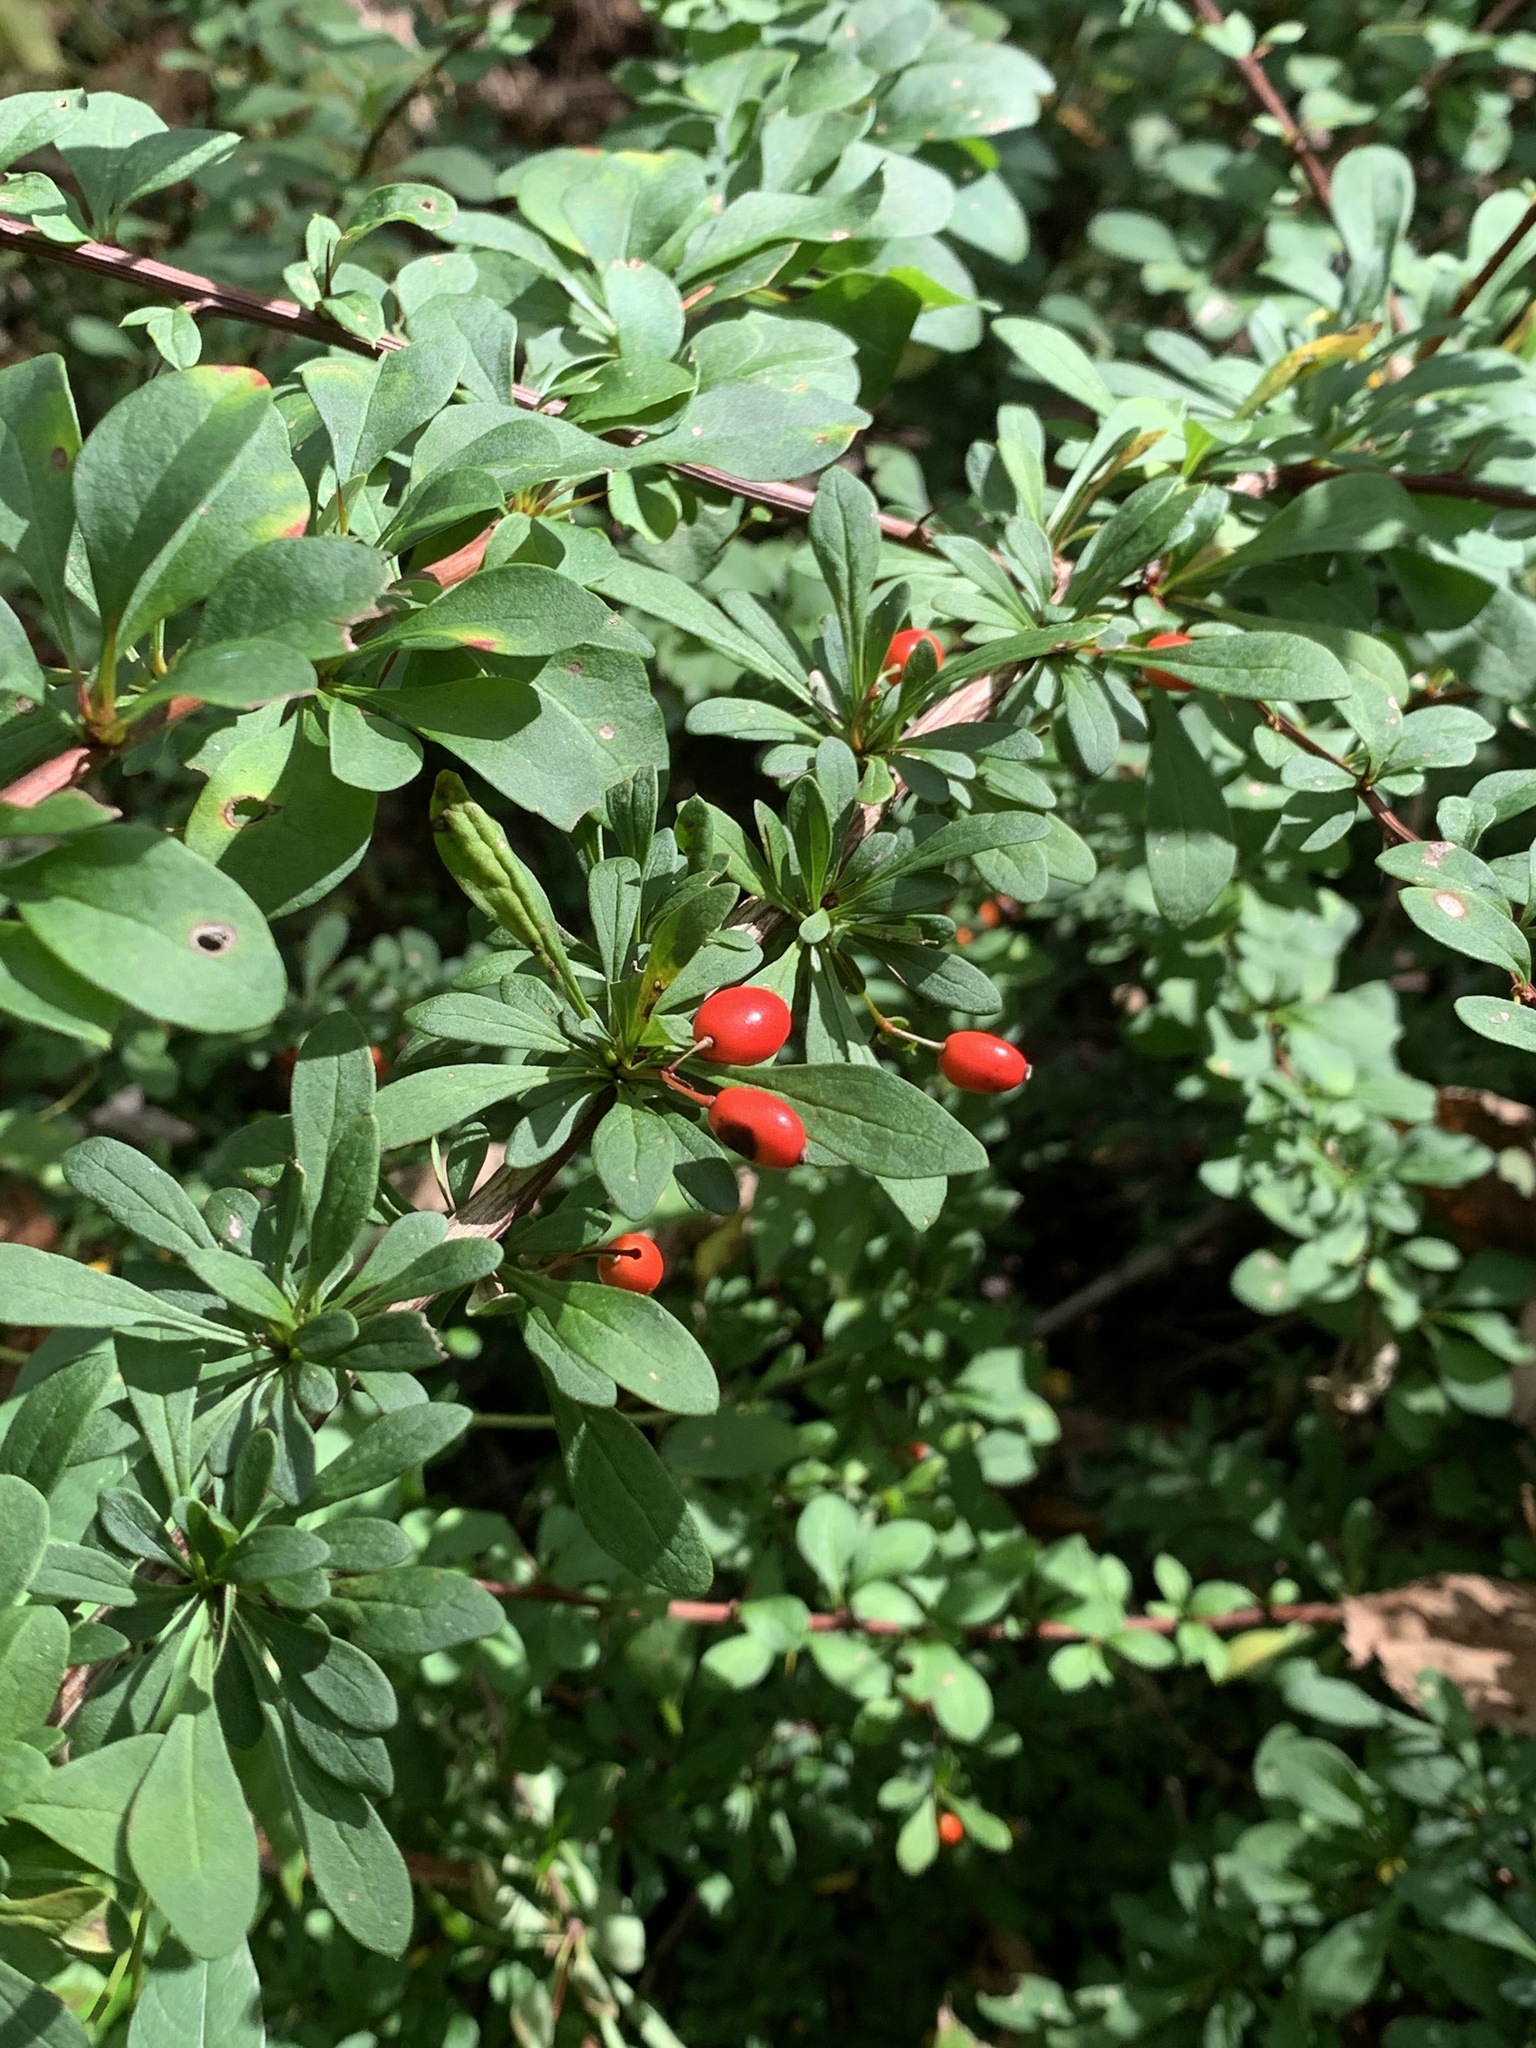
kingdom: Plantae
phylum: Tracheophyta
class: Magnoliopsida
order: Ranunculales
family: Berberidaceae
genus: Berberis
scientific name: Berberis thunbergii
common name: Japanese barberry
